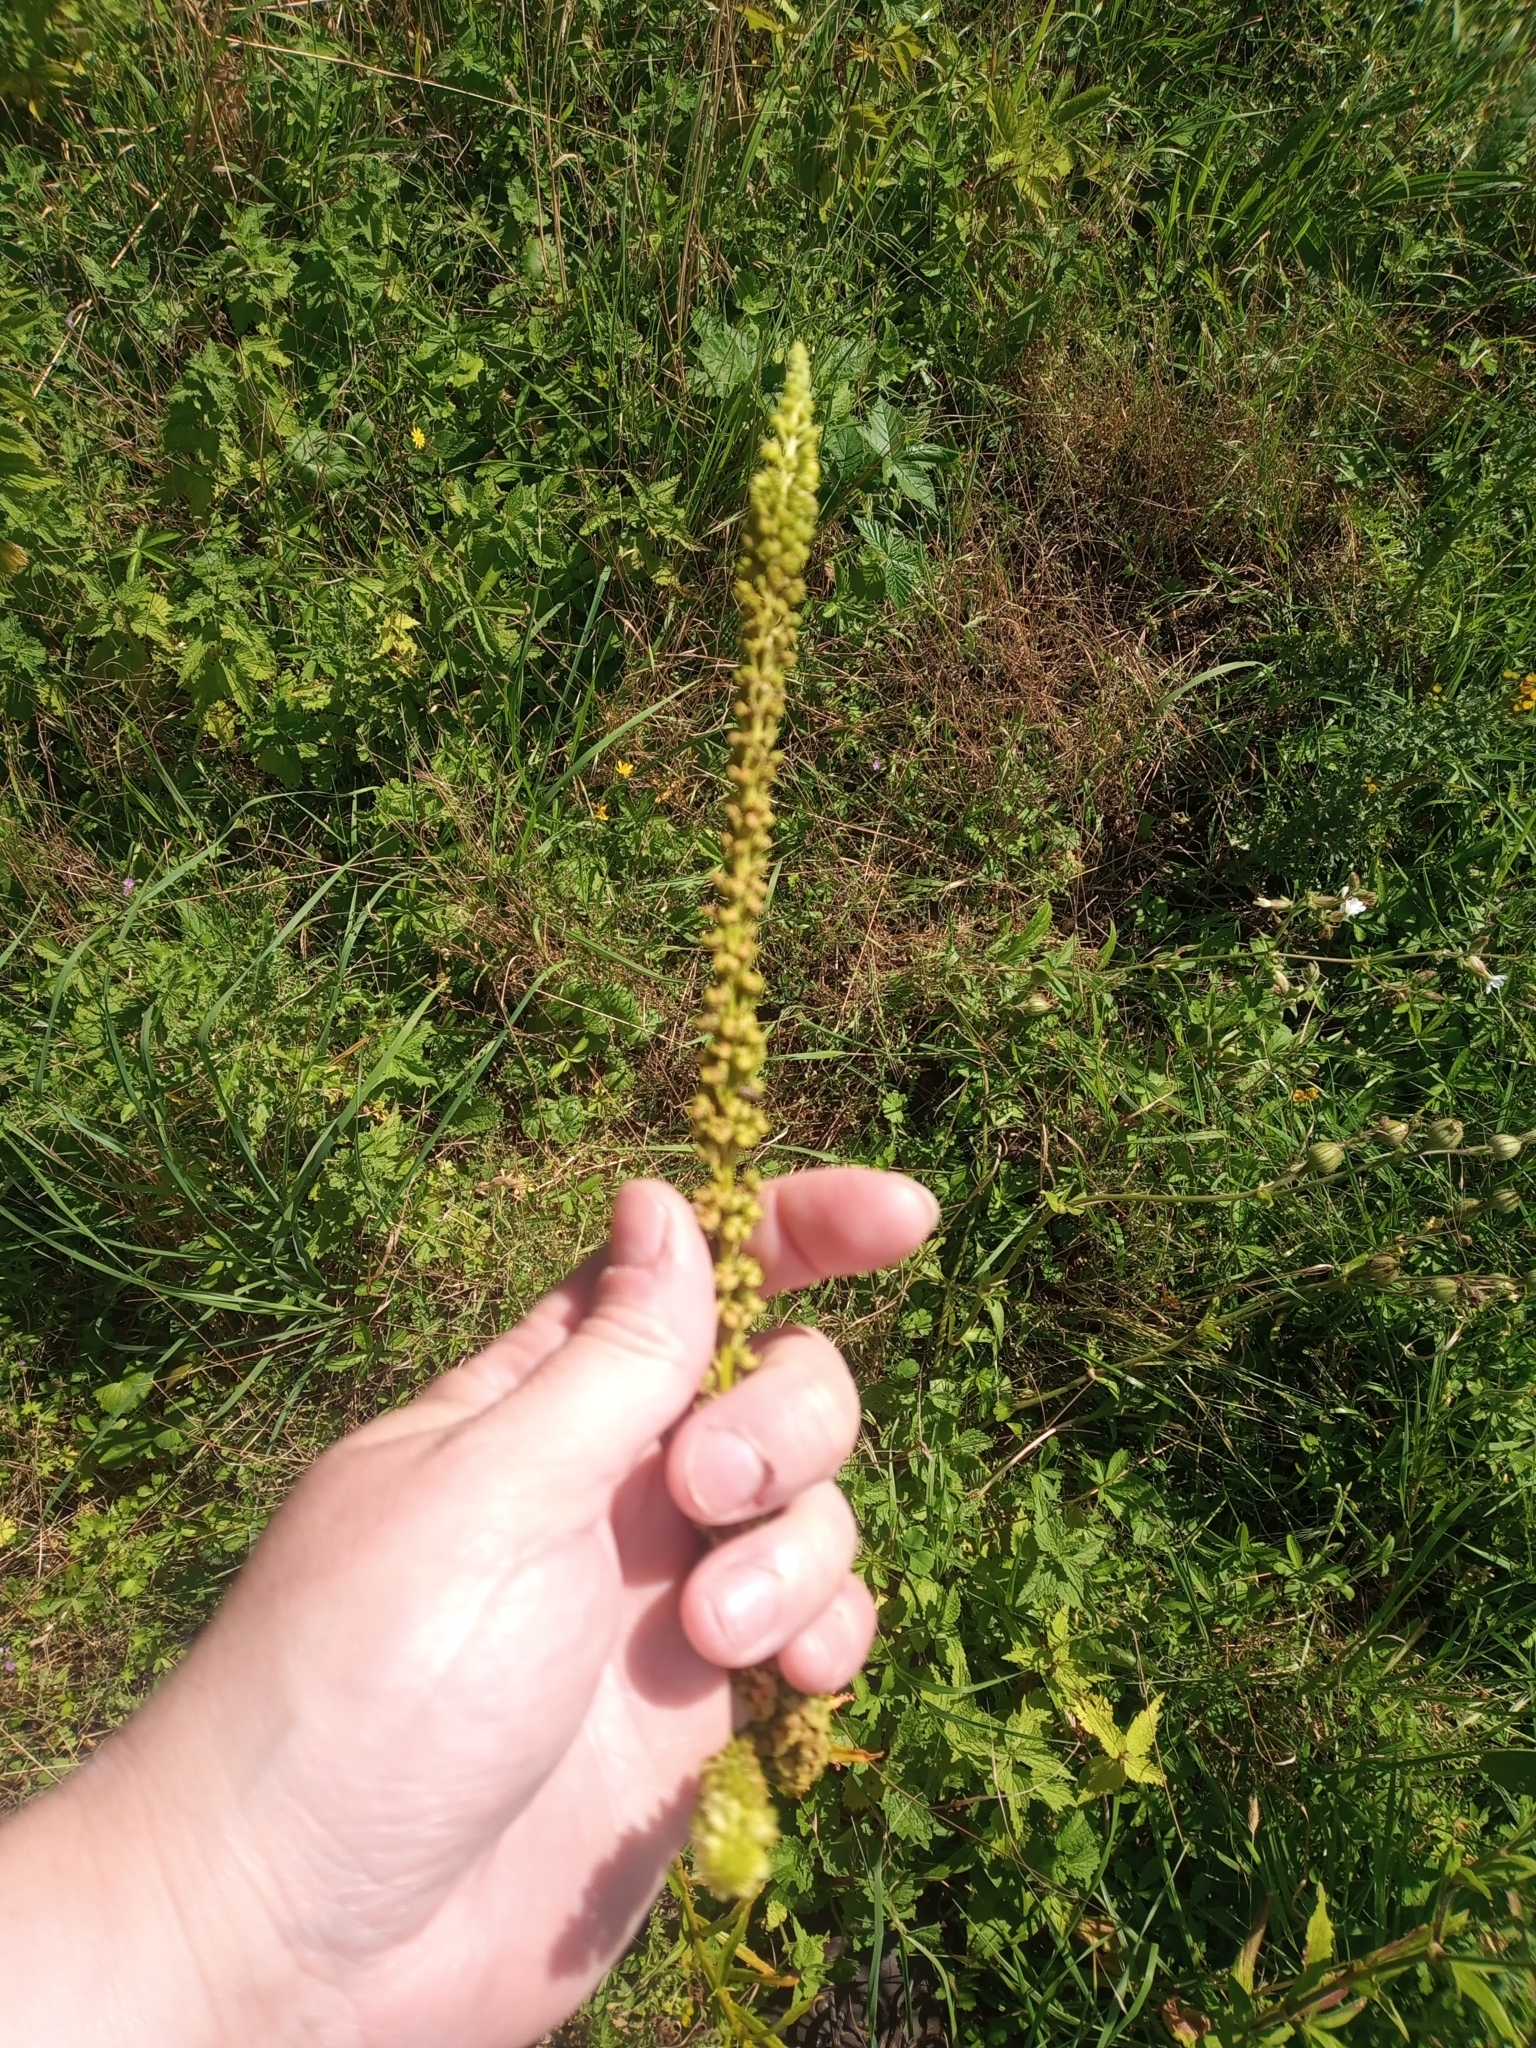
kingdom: Plantae
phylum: Tracheophyta
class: Magnoliopsida
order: Brassicales
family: Resedaceae
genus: Reseda
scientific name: Reseda luteola
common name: Weld
